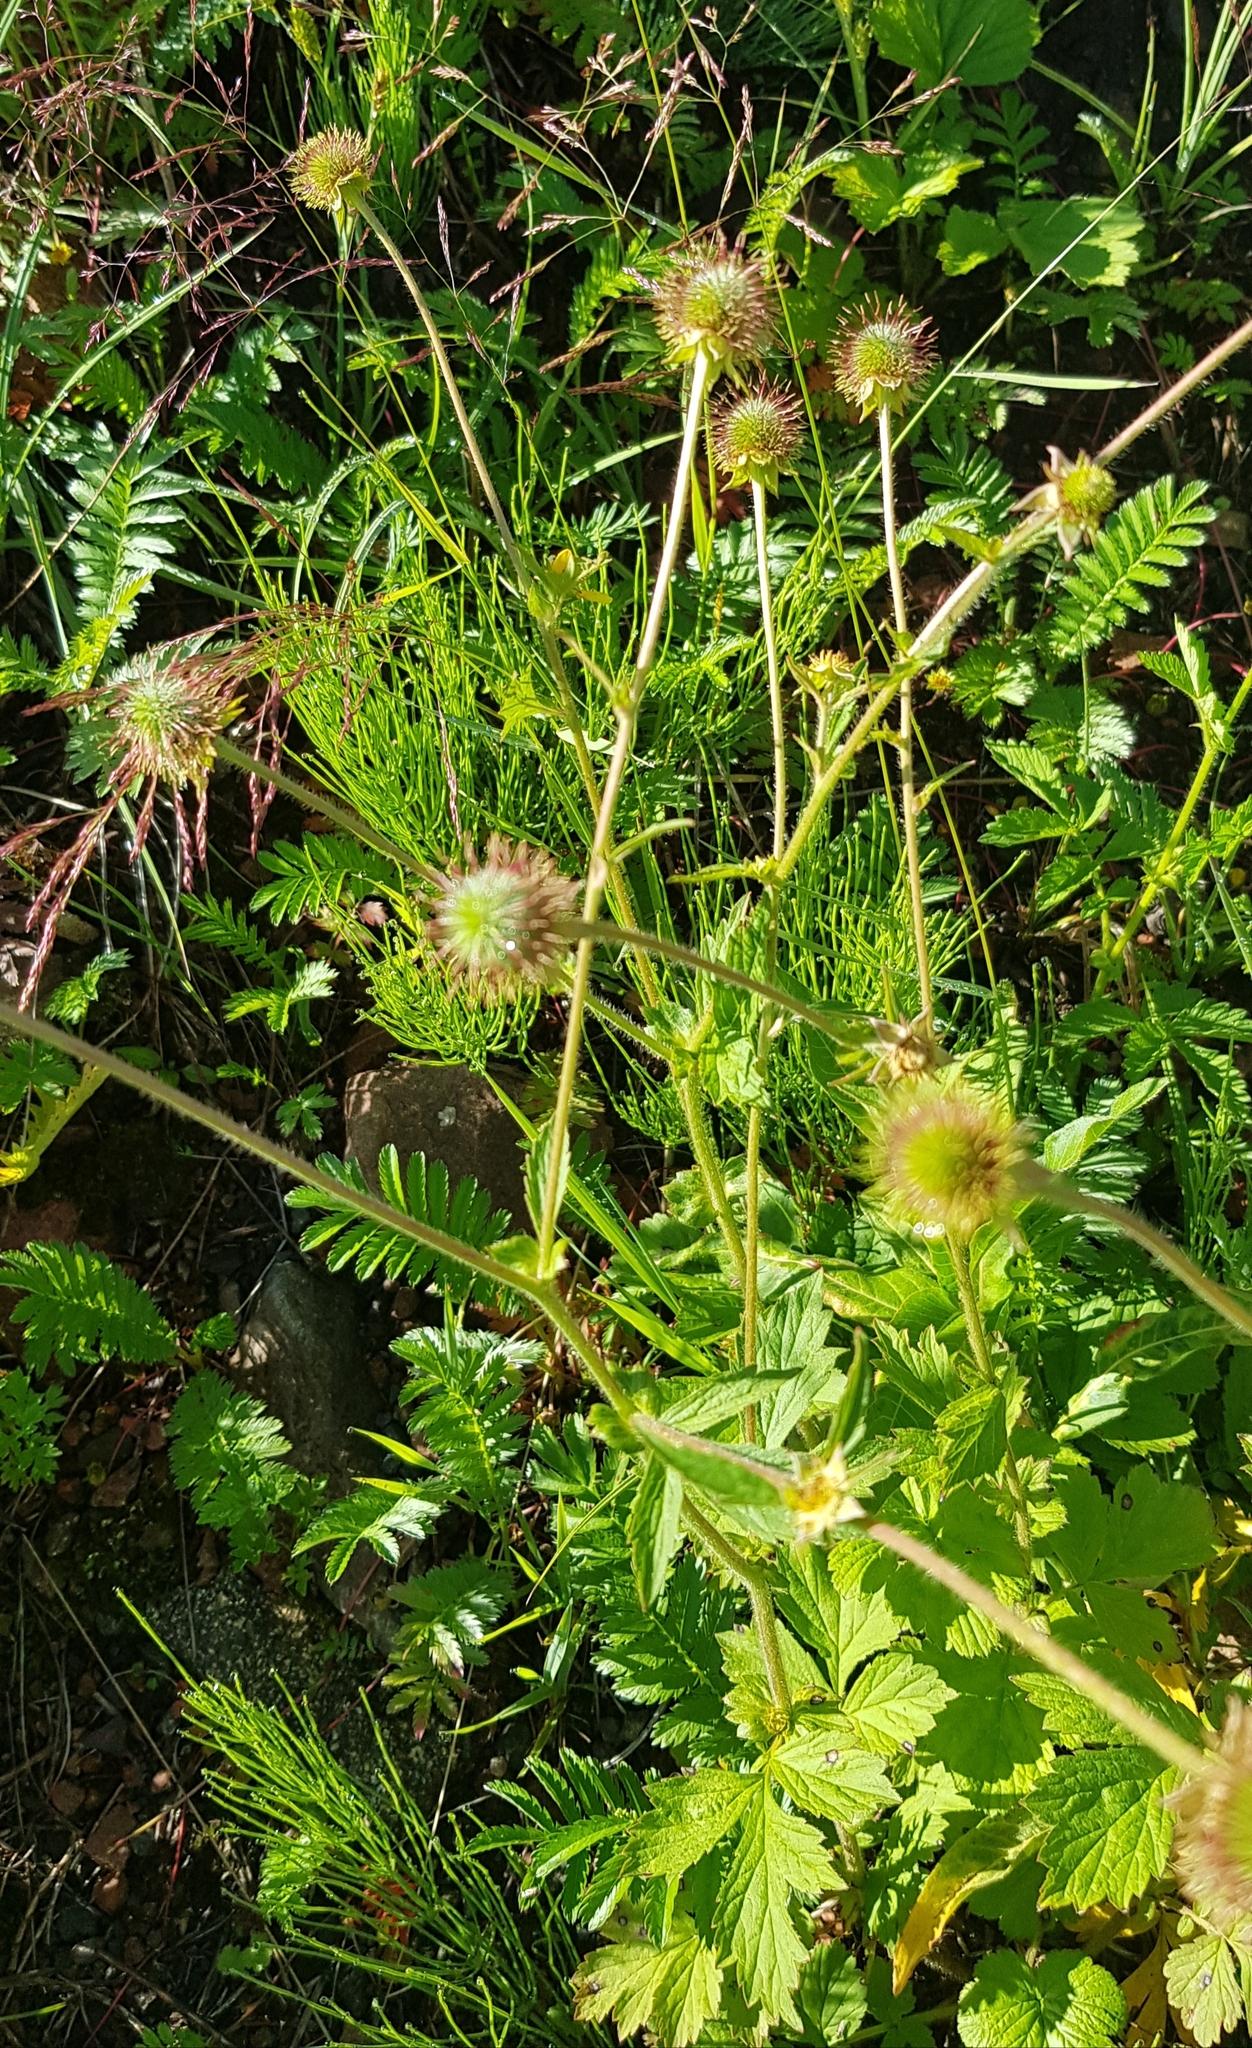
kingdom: Plantae
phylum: Tracheophyta
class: Magnoliopsida
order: Rosales
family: Rosaceae
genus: Geum
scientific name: Geum aleppicum
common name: Yellow avens
